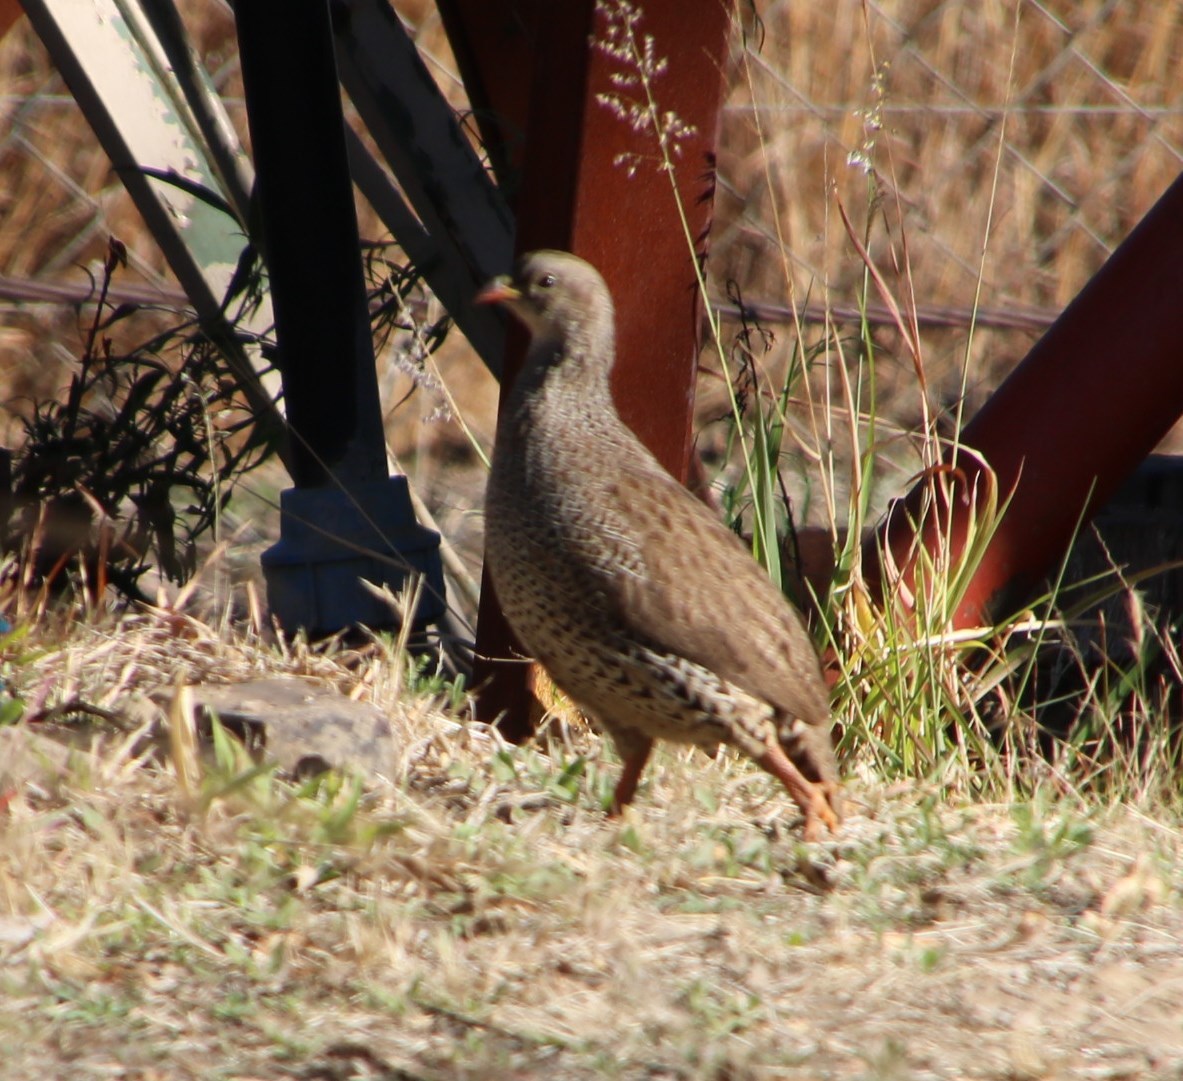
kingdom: Animalia
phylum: Chordata
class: Aves
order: Galliformes
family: Phasianidae
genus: Pternistis
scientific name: Pternistis natalensis
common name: Natal spurfowl
